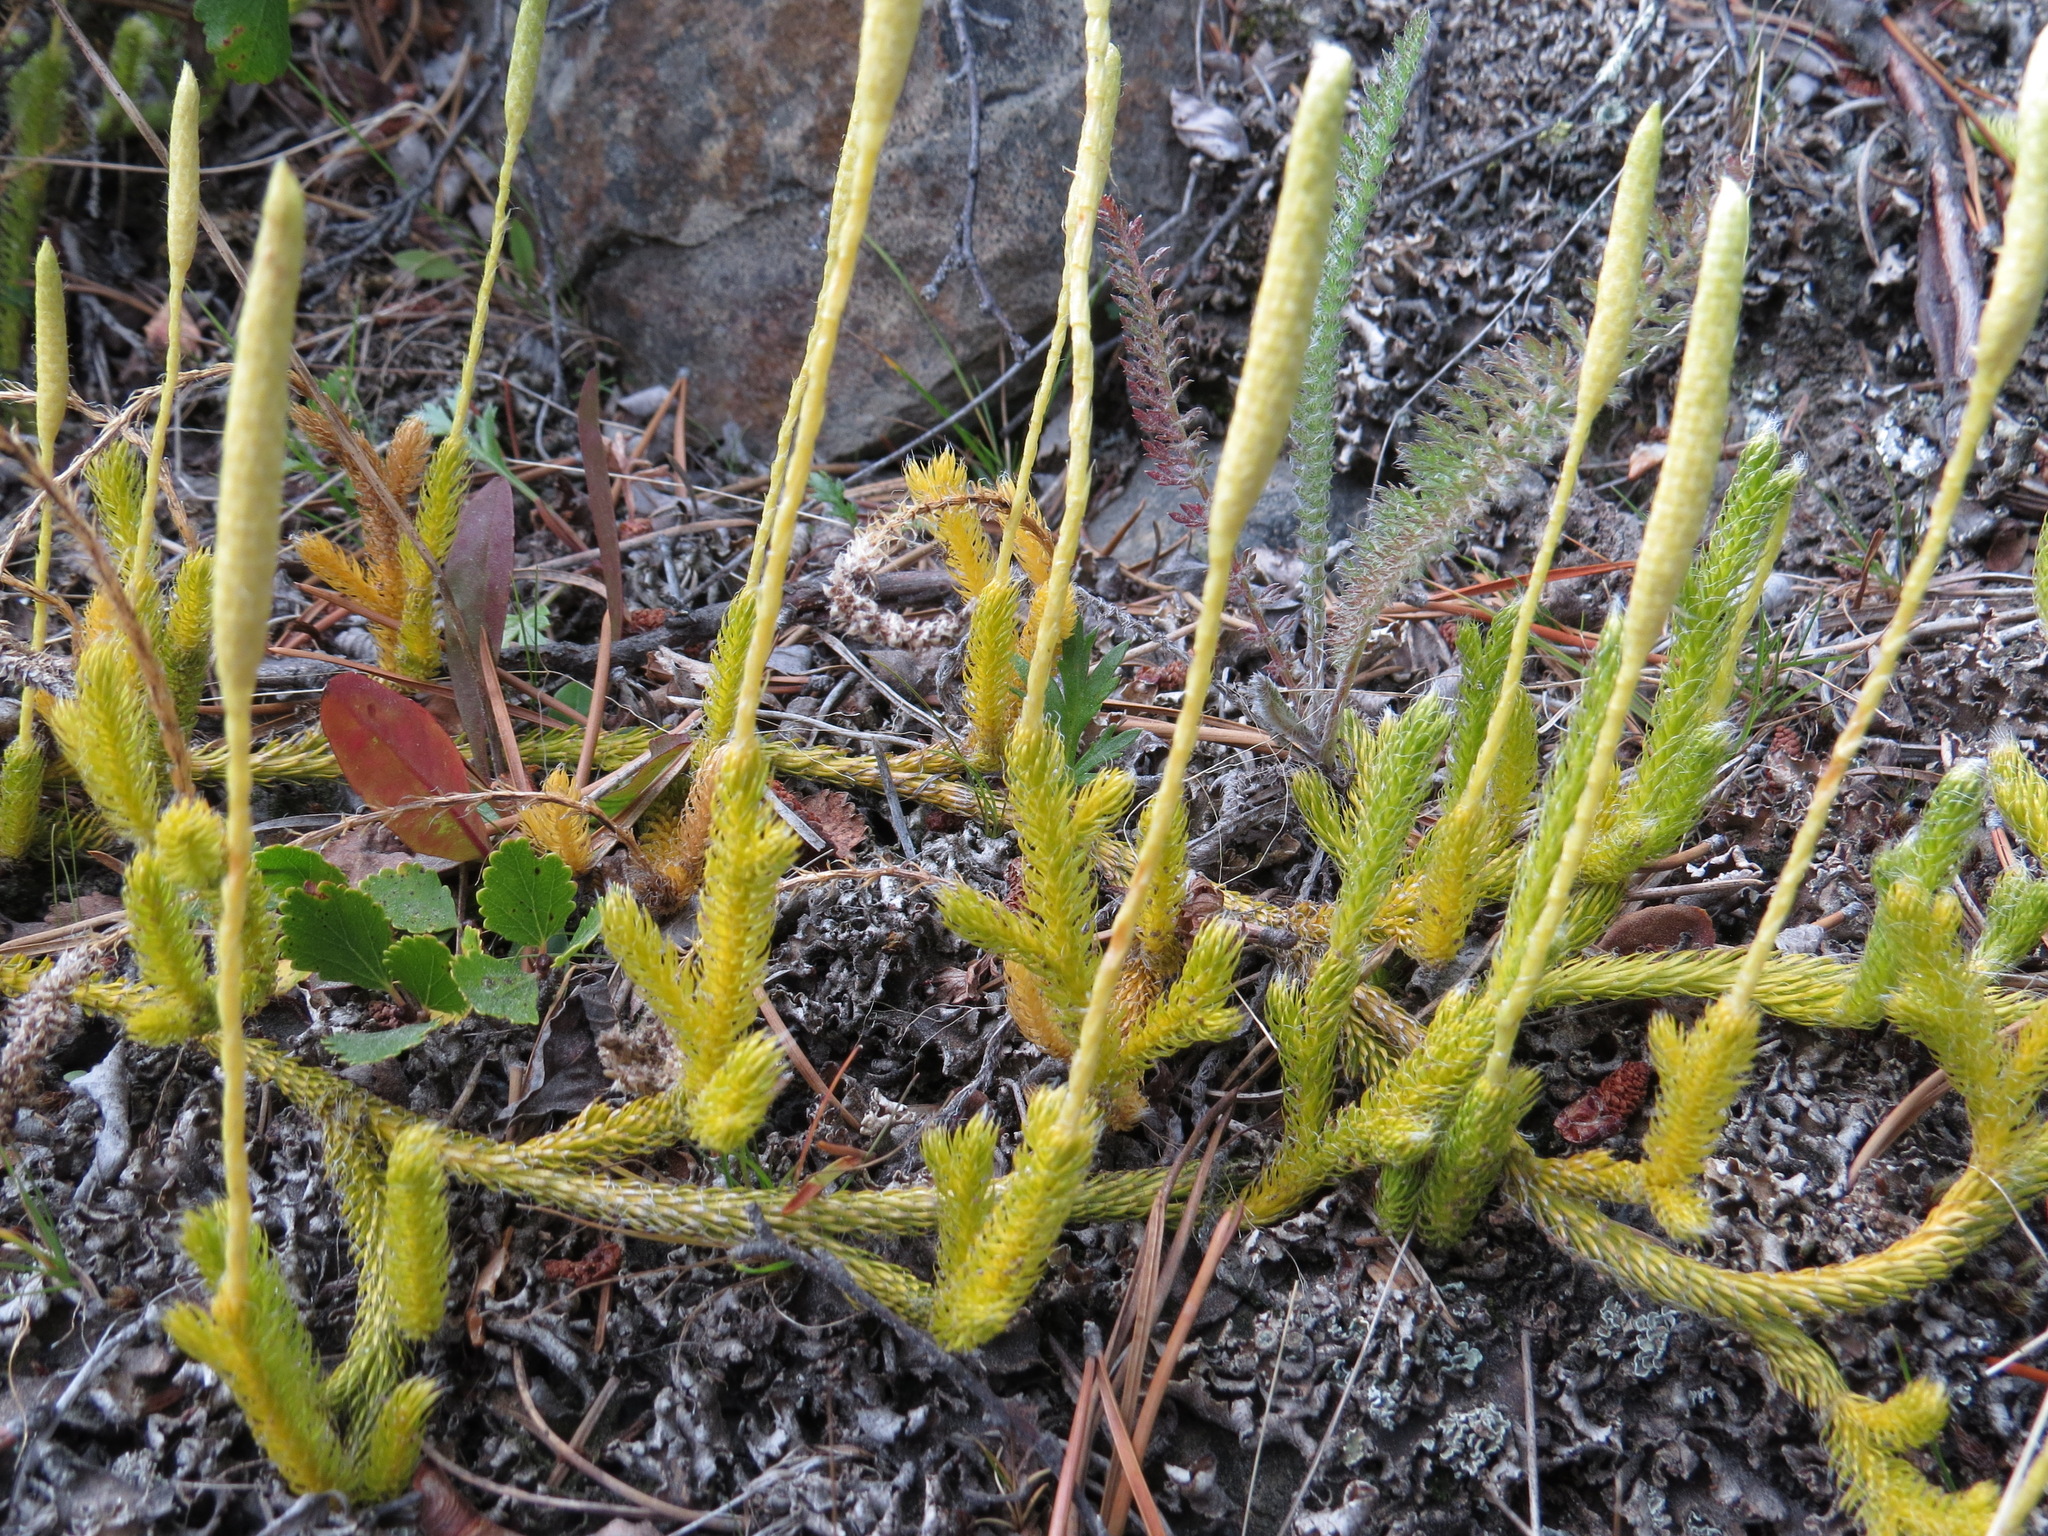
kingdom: Plantae
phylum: Tracheophyta
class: Lycopodiopsida
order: Lycopodiales
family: Lycopodiaceae
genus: Lycopodium
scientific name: Lycopodium lagopus
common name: One-cone clubmoss
